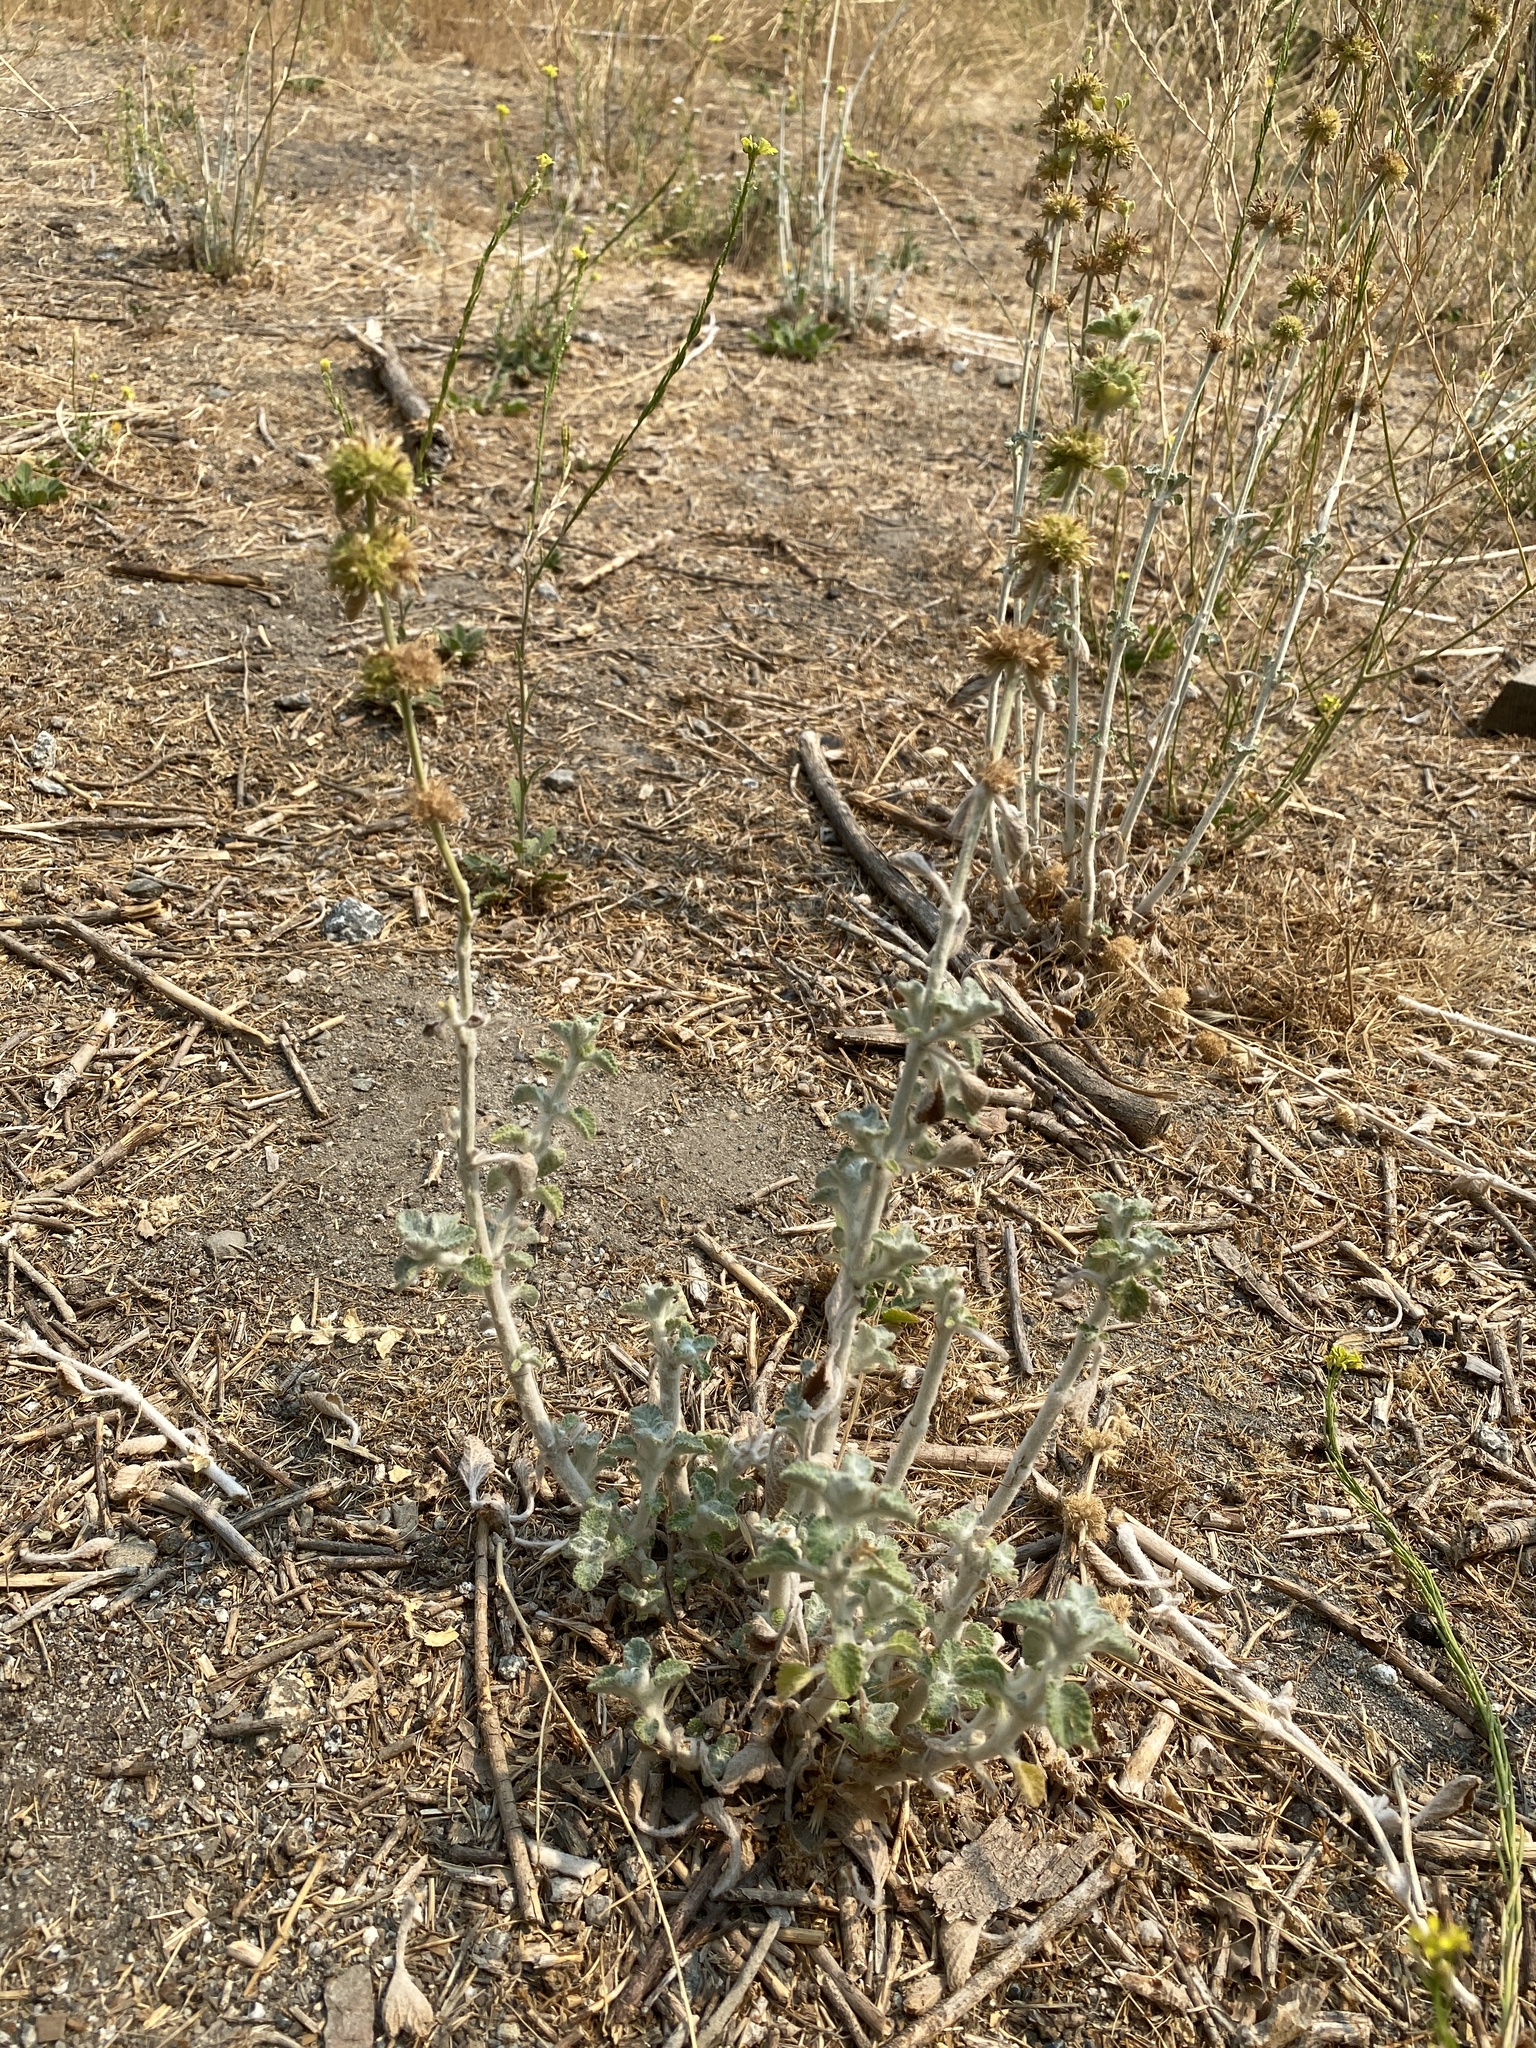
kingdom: Plantae
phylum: Tracheophyta
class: Magnoliopsida
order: Lamiales
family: Lamiaceae
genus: Marrubium
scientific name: Marrubium vulgare
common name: Horehound
